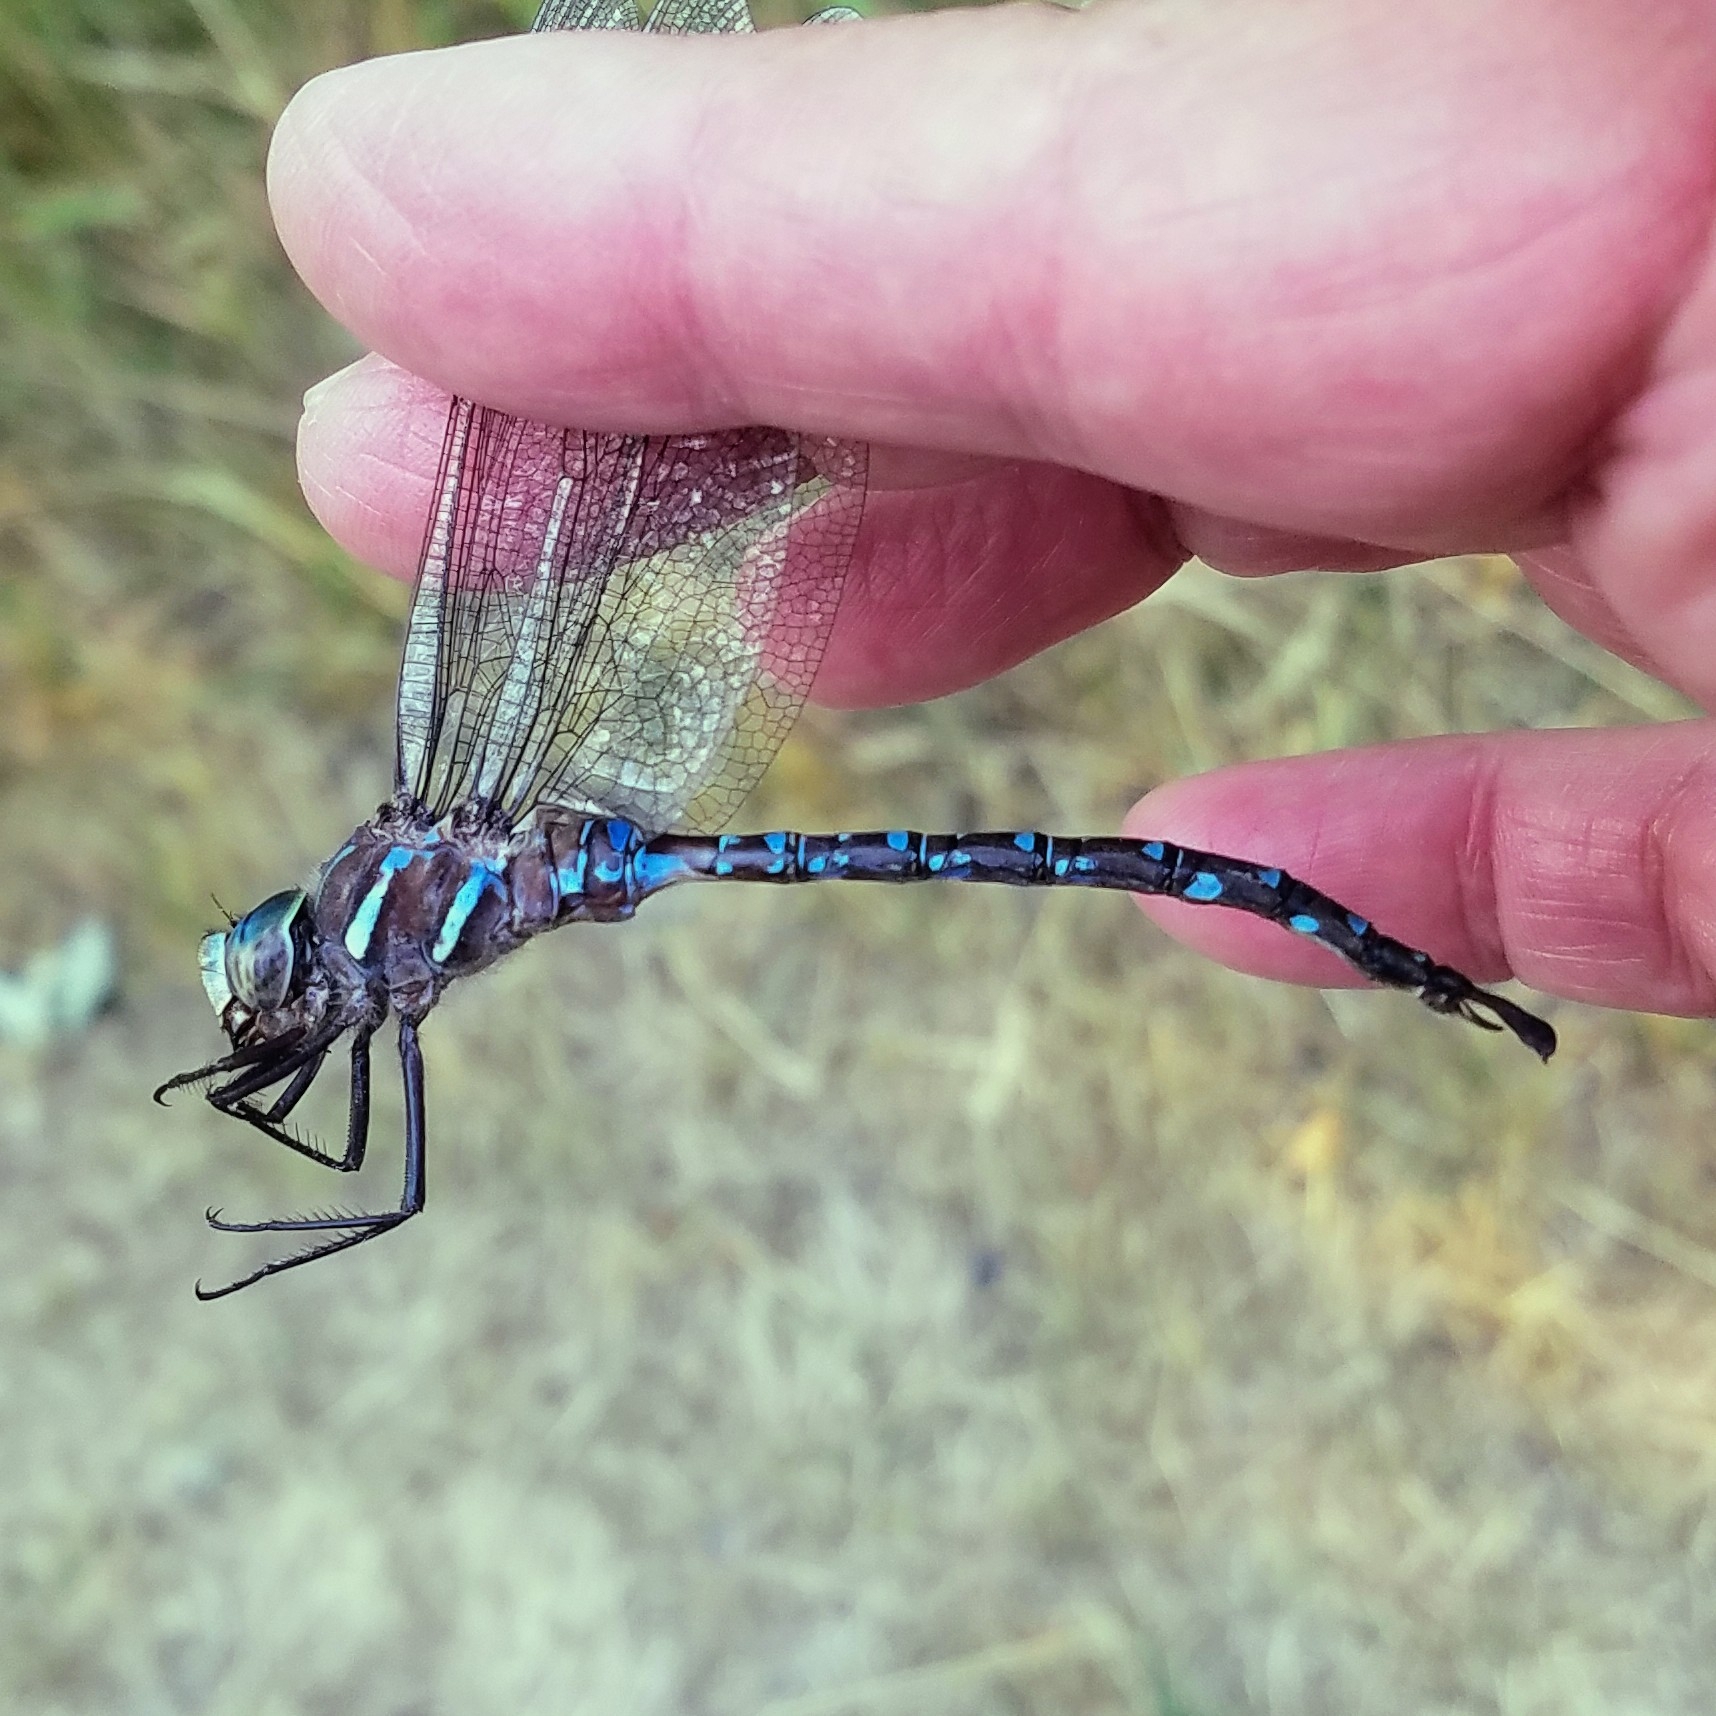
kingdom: Animalia
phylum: Arthropoda
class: Insecta
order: Odonata
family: Aeshnidae
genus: Aeshna
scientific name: Aeshna umbrosa
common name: Shadow darner
